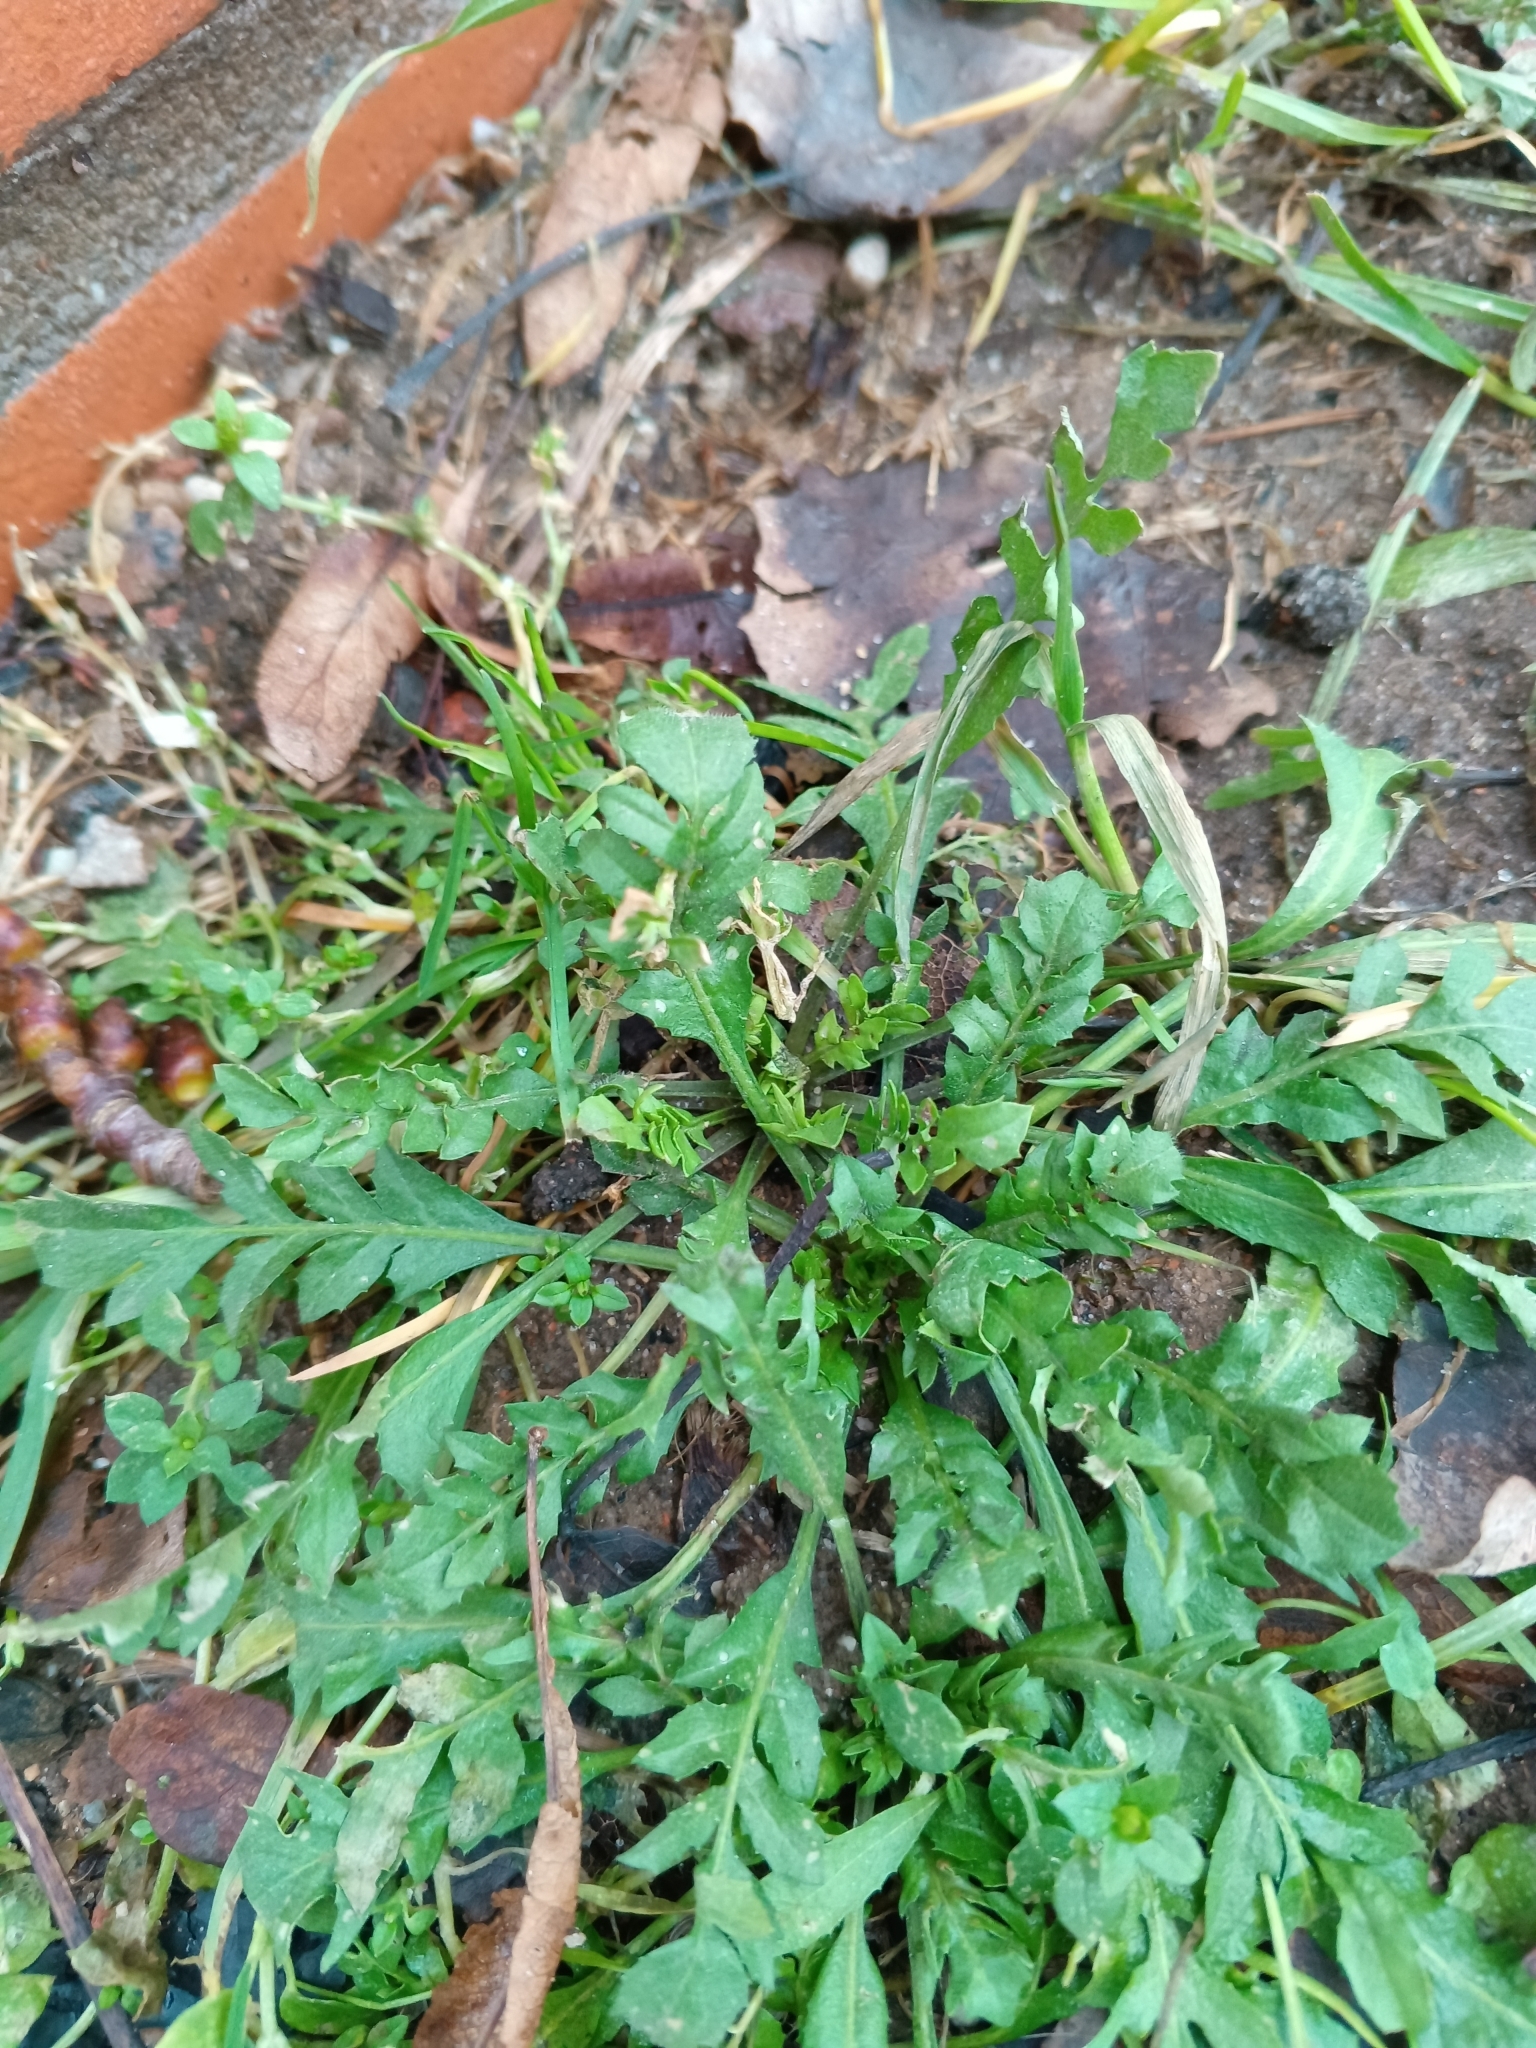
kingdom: Plantae
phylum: Tracheophyta
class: Magnoliopsida
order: Brassicales
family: Brassicaceae
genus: Capsella
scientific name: Capsella bursa-pastoris
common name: Shepherd's purse
